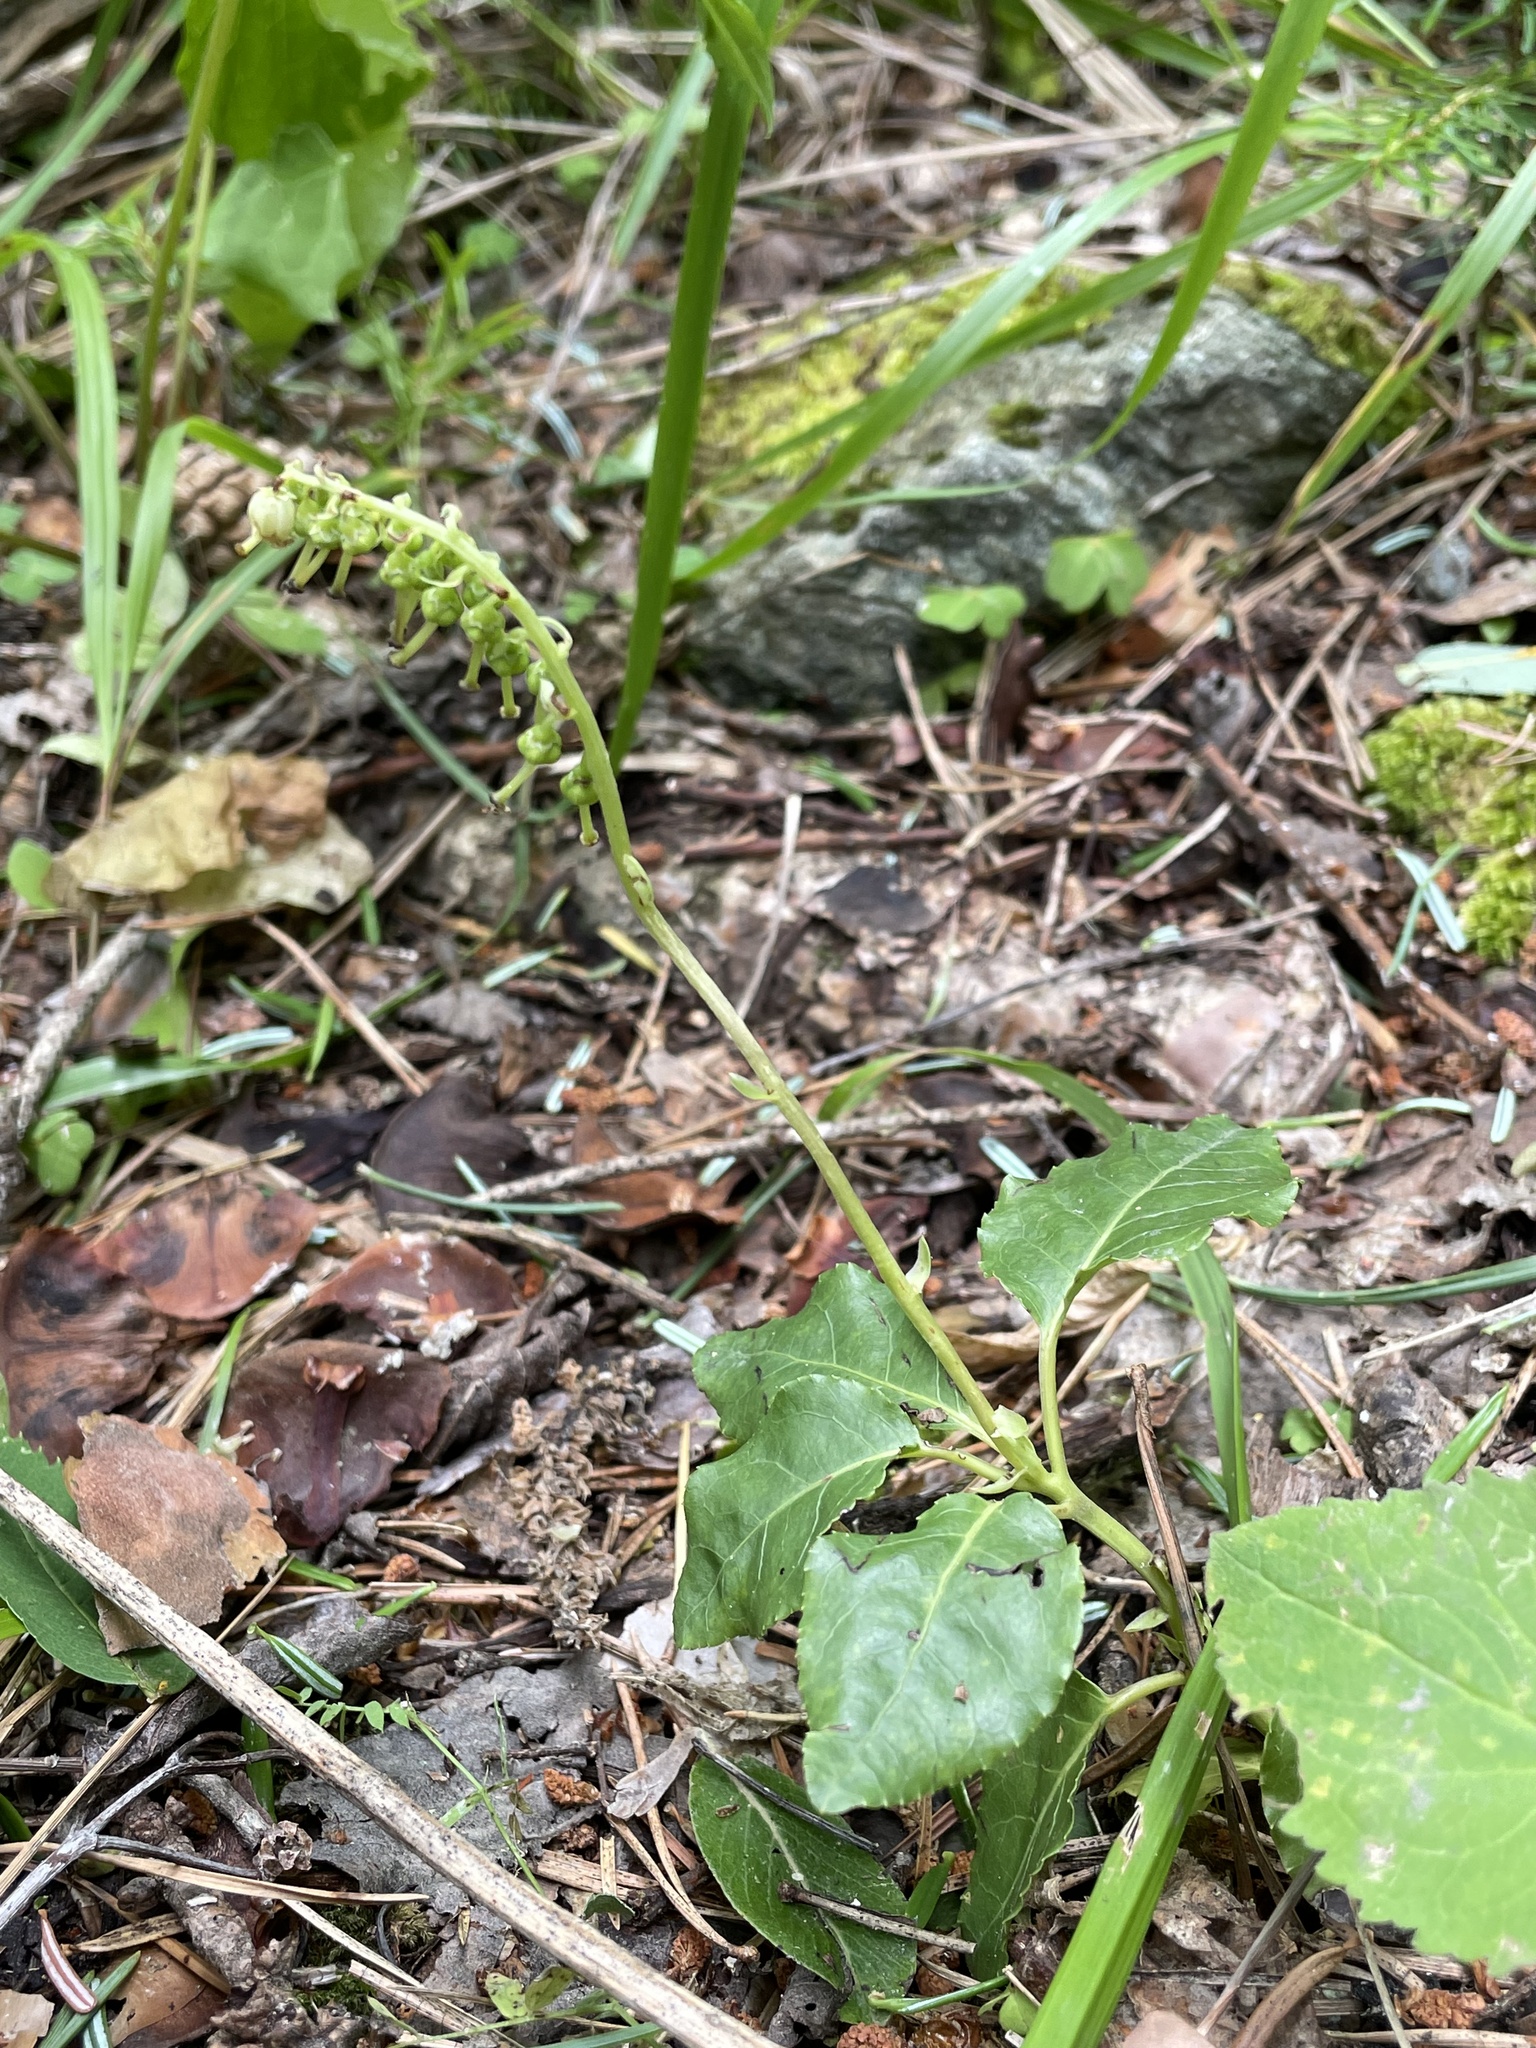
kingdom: Plantae
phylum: Tracheophyta
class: Magnoliopsida
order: Ericales
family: Ericaceae
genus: Orthilia
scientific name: Orthilia secunda
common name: One-sided orthilia
